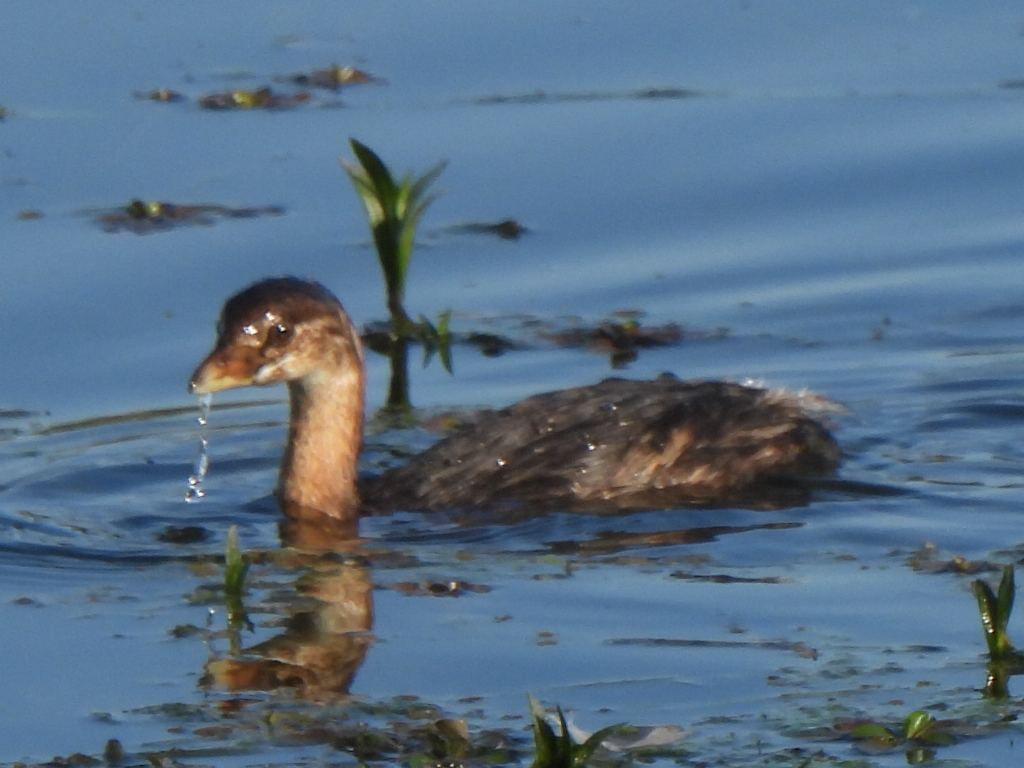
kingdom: Animalia
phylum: Chordata
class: Aves
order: Podicipediformes
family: Podicipedidae
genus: Podilymbus
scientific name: Podilymbus podiceps
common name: Pied-billed grebe
